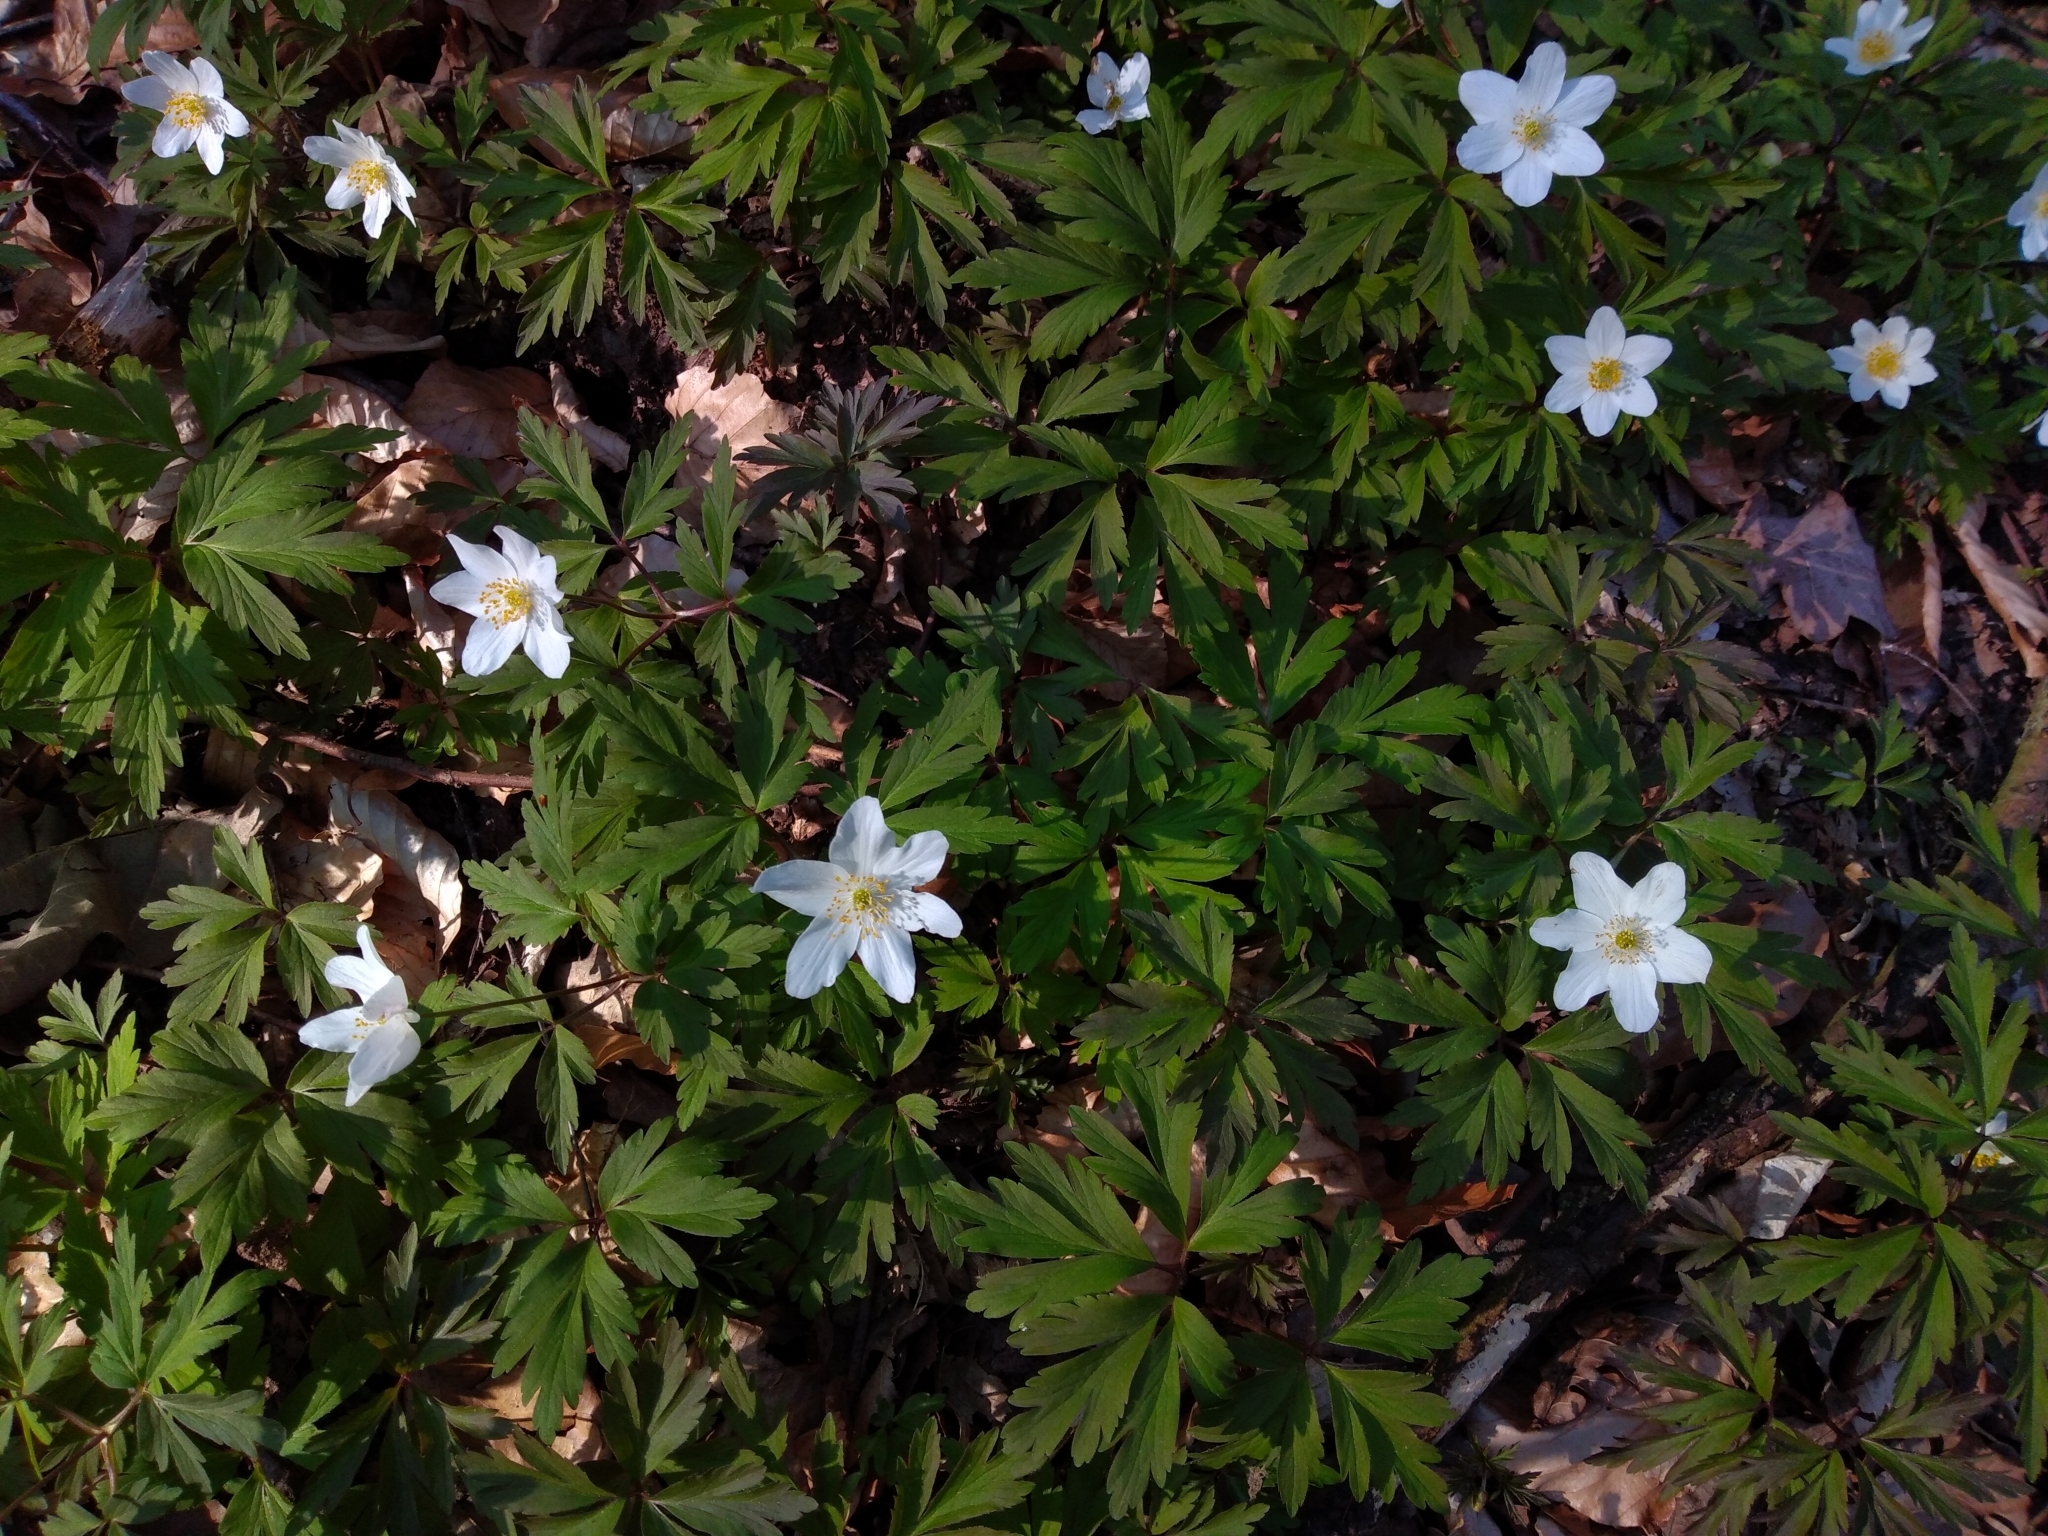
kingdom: Plantae
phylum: Tracheophyta
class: Magnoliopsida
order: Ranunculales
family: Ranunculaceae
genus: Anemone
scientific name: Anemone nemorosa
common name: Wood anemone
